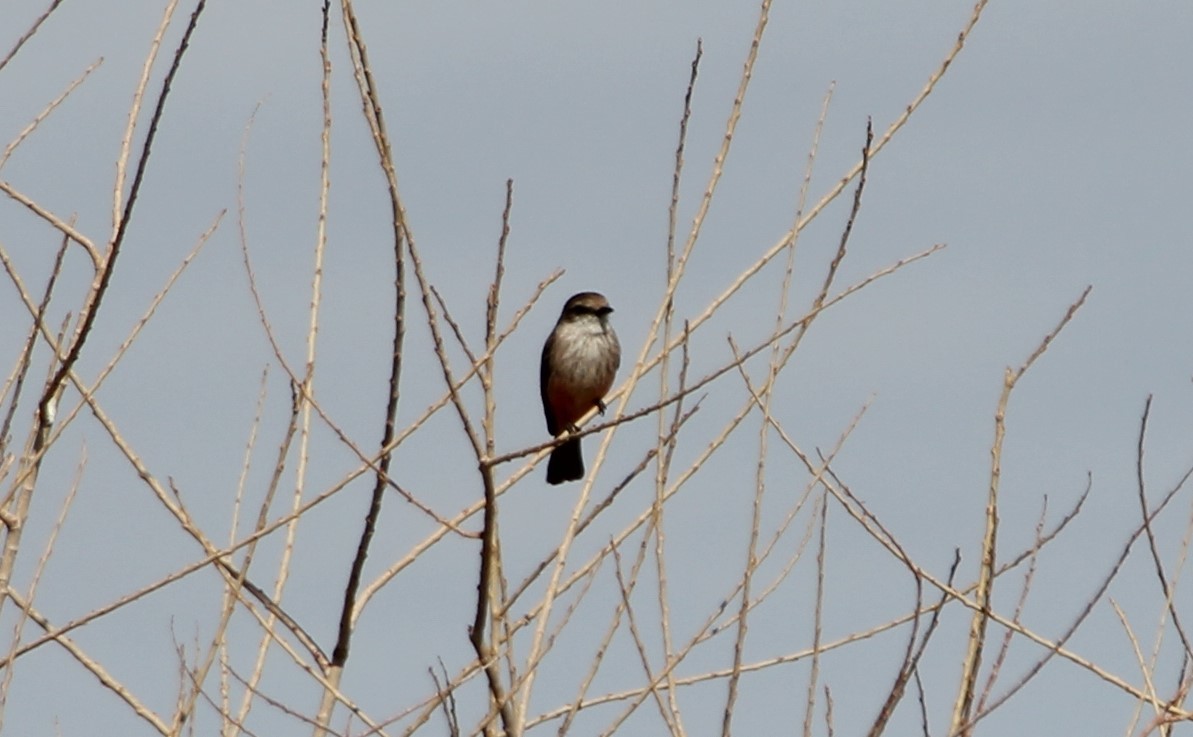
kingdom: Animalia
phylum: Chordata
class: Aves
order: Passeriformes
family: Tyrannidae
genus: Pyrocephalus
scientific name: Pyrocephalus rubinus
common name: Vermilion flycatcher
